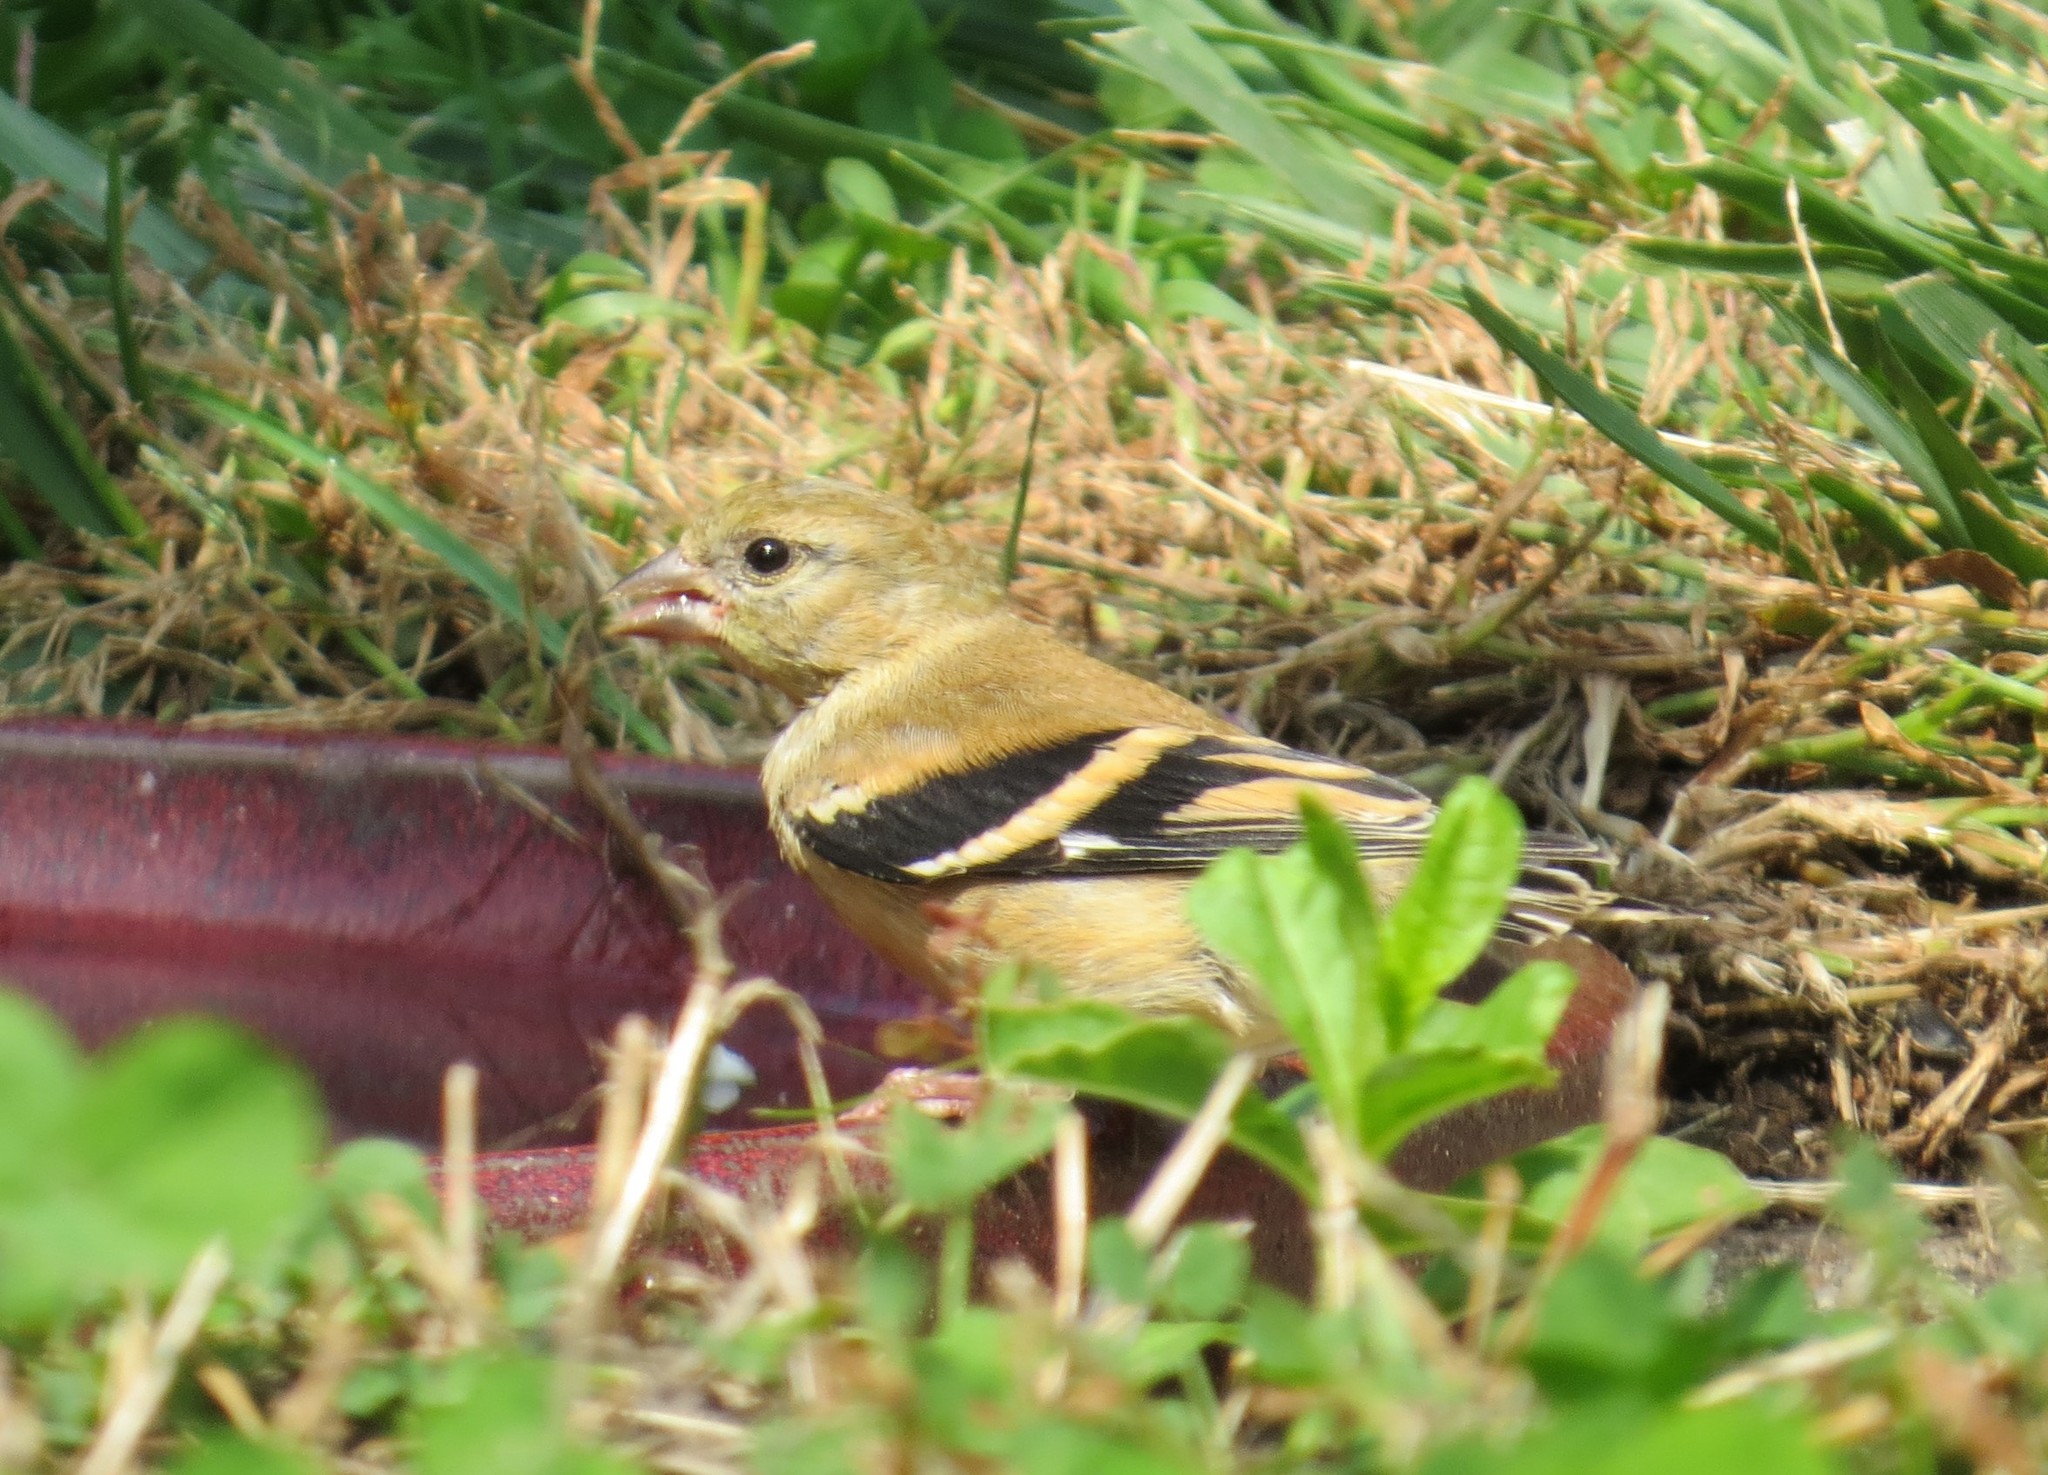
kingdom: Animalia
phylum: Chordata
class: Aves
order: Passeriformes
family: Fringillidae
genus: Spinus
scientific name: Spinus tristis
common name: American goldfinch
